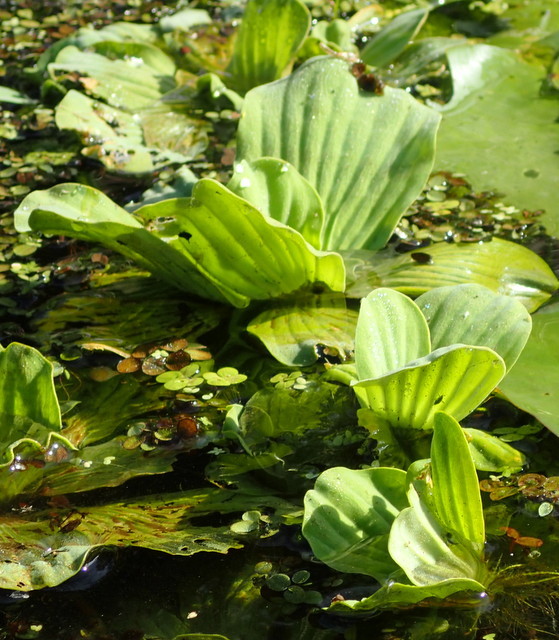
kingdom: Plantae
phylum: Tracheophyta
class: Liliopsida
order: Alismatales
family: Araceae
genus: Pistia
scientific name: Pistia stratiotes
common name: Water lettuce
